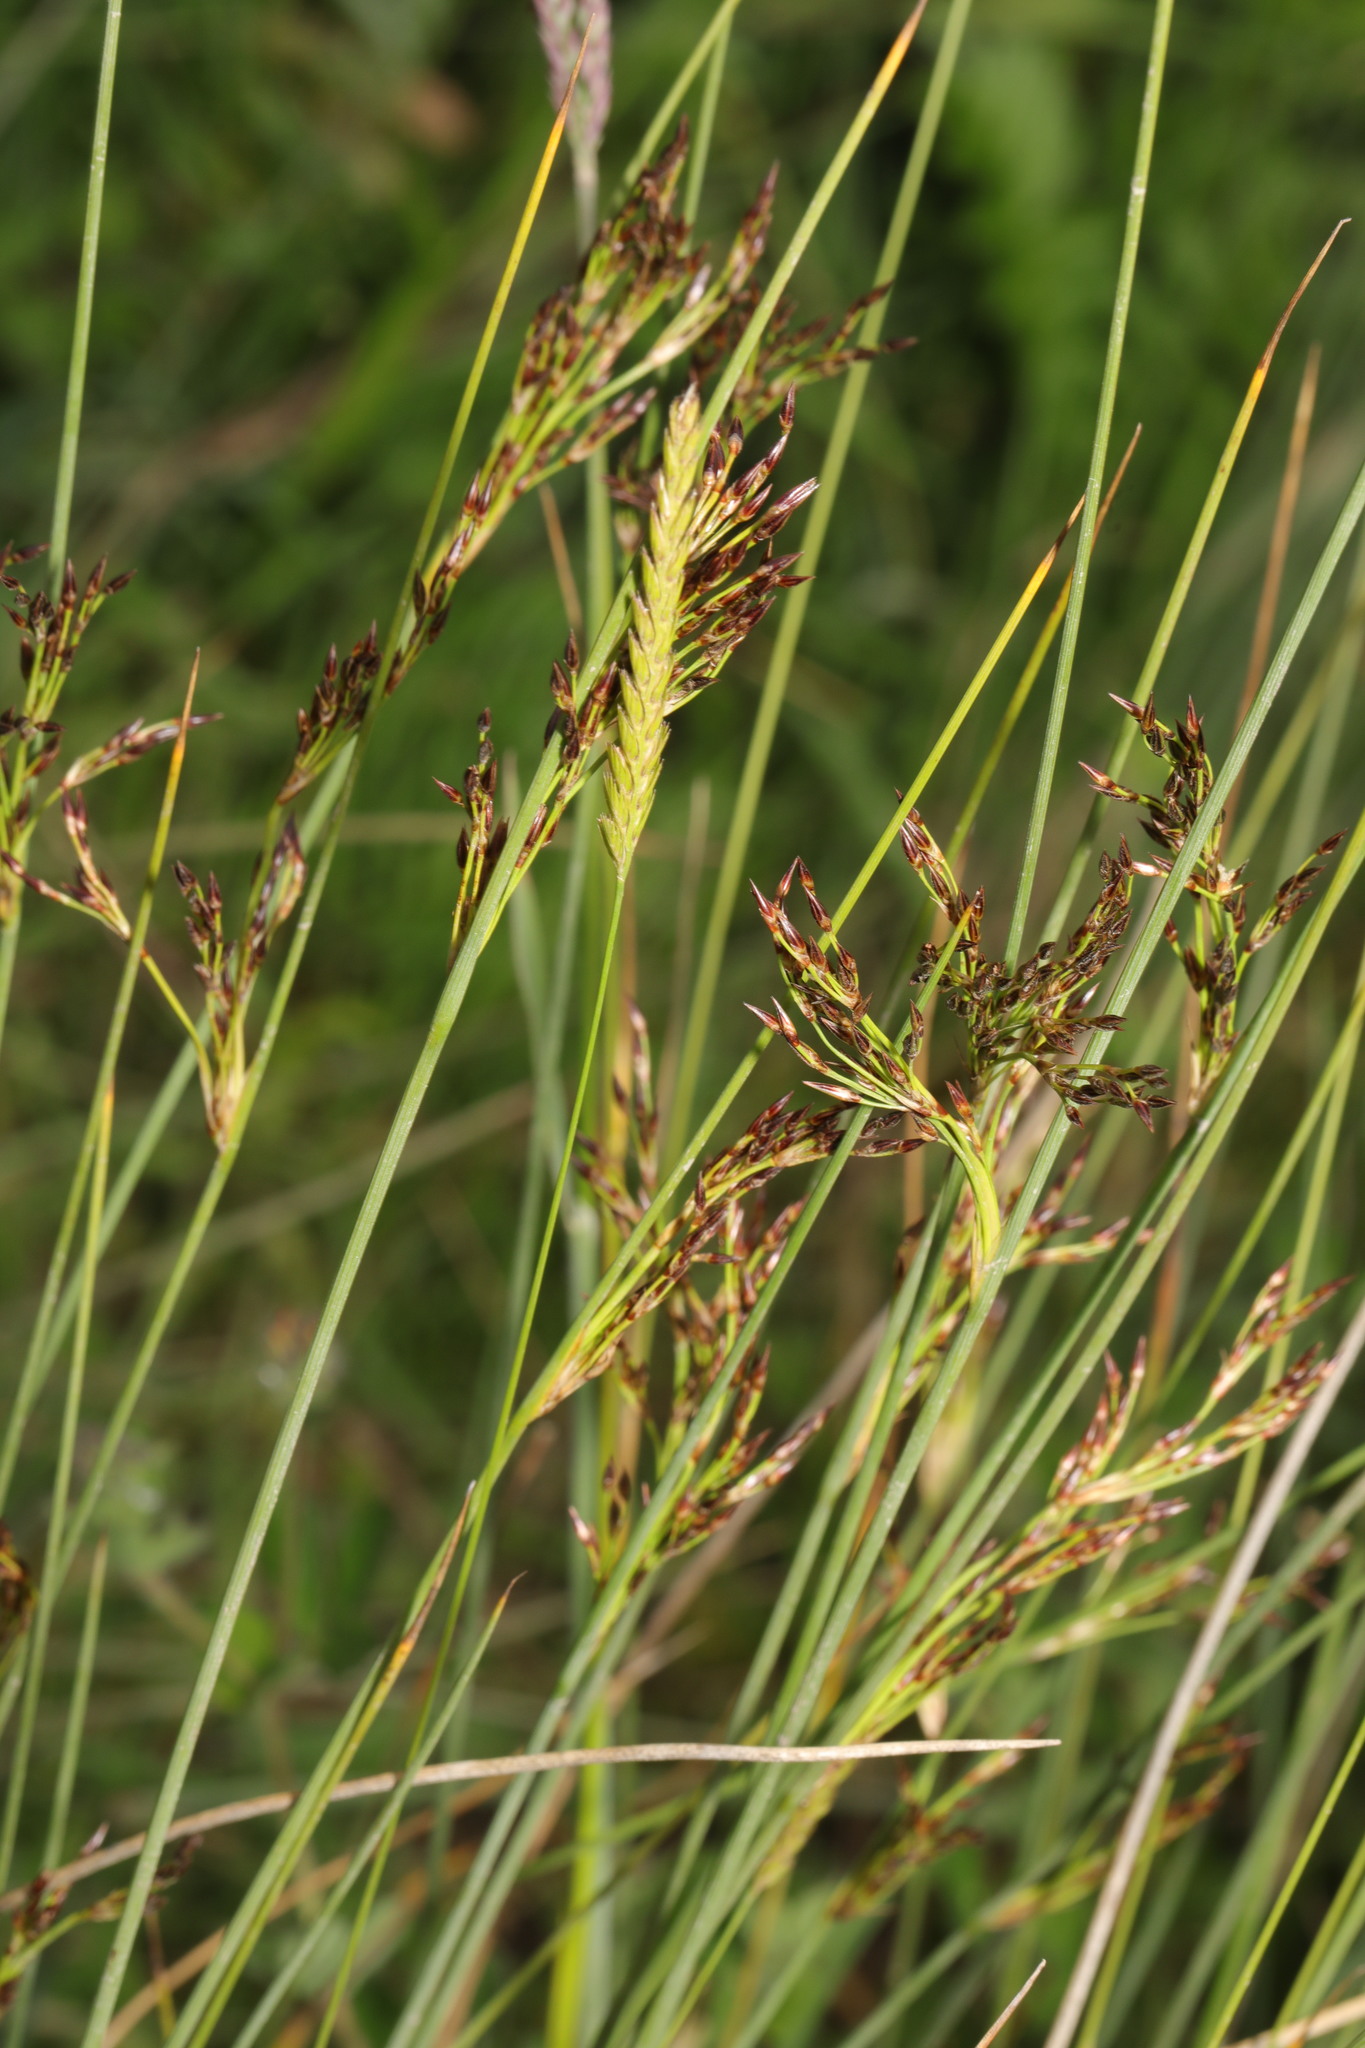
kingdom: Plantae
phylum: Tracheophyta
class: Liliopsida
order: Poales
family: Juncaceae
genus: Juncus
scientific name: Juncus inflexus
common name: Hard rush
